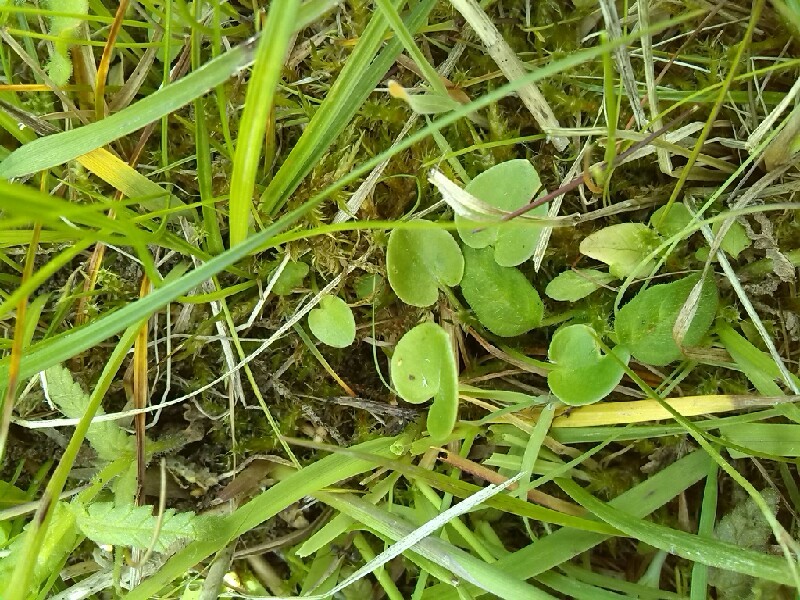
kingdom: Plantae
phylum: Tracheophyta
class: Magnoliopsida
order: Celastrales
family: Parnassiaceae
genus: Parnassia
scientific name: Parnassia palustris
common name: Grass-of-parnassus
